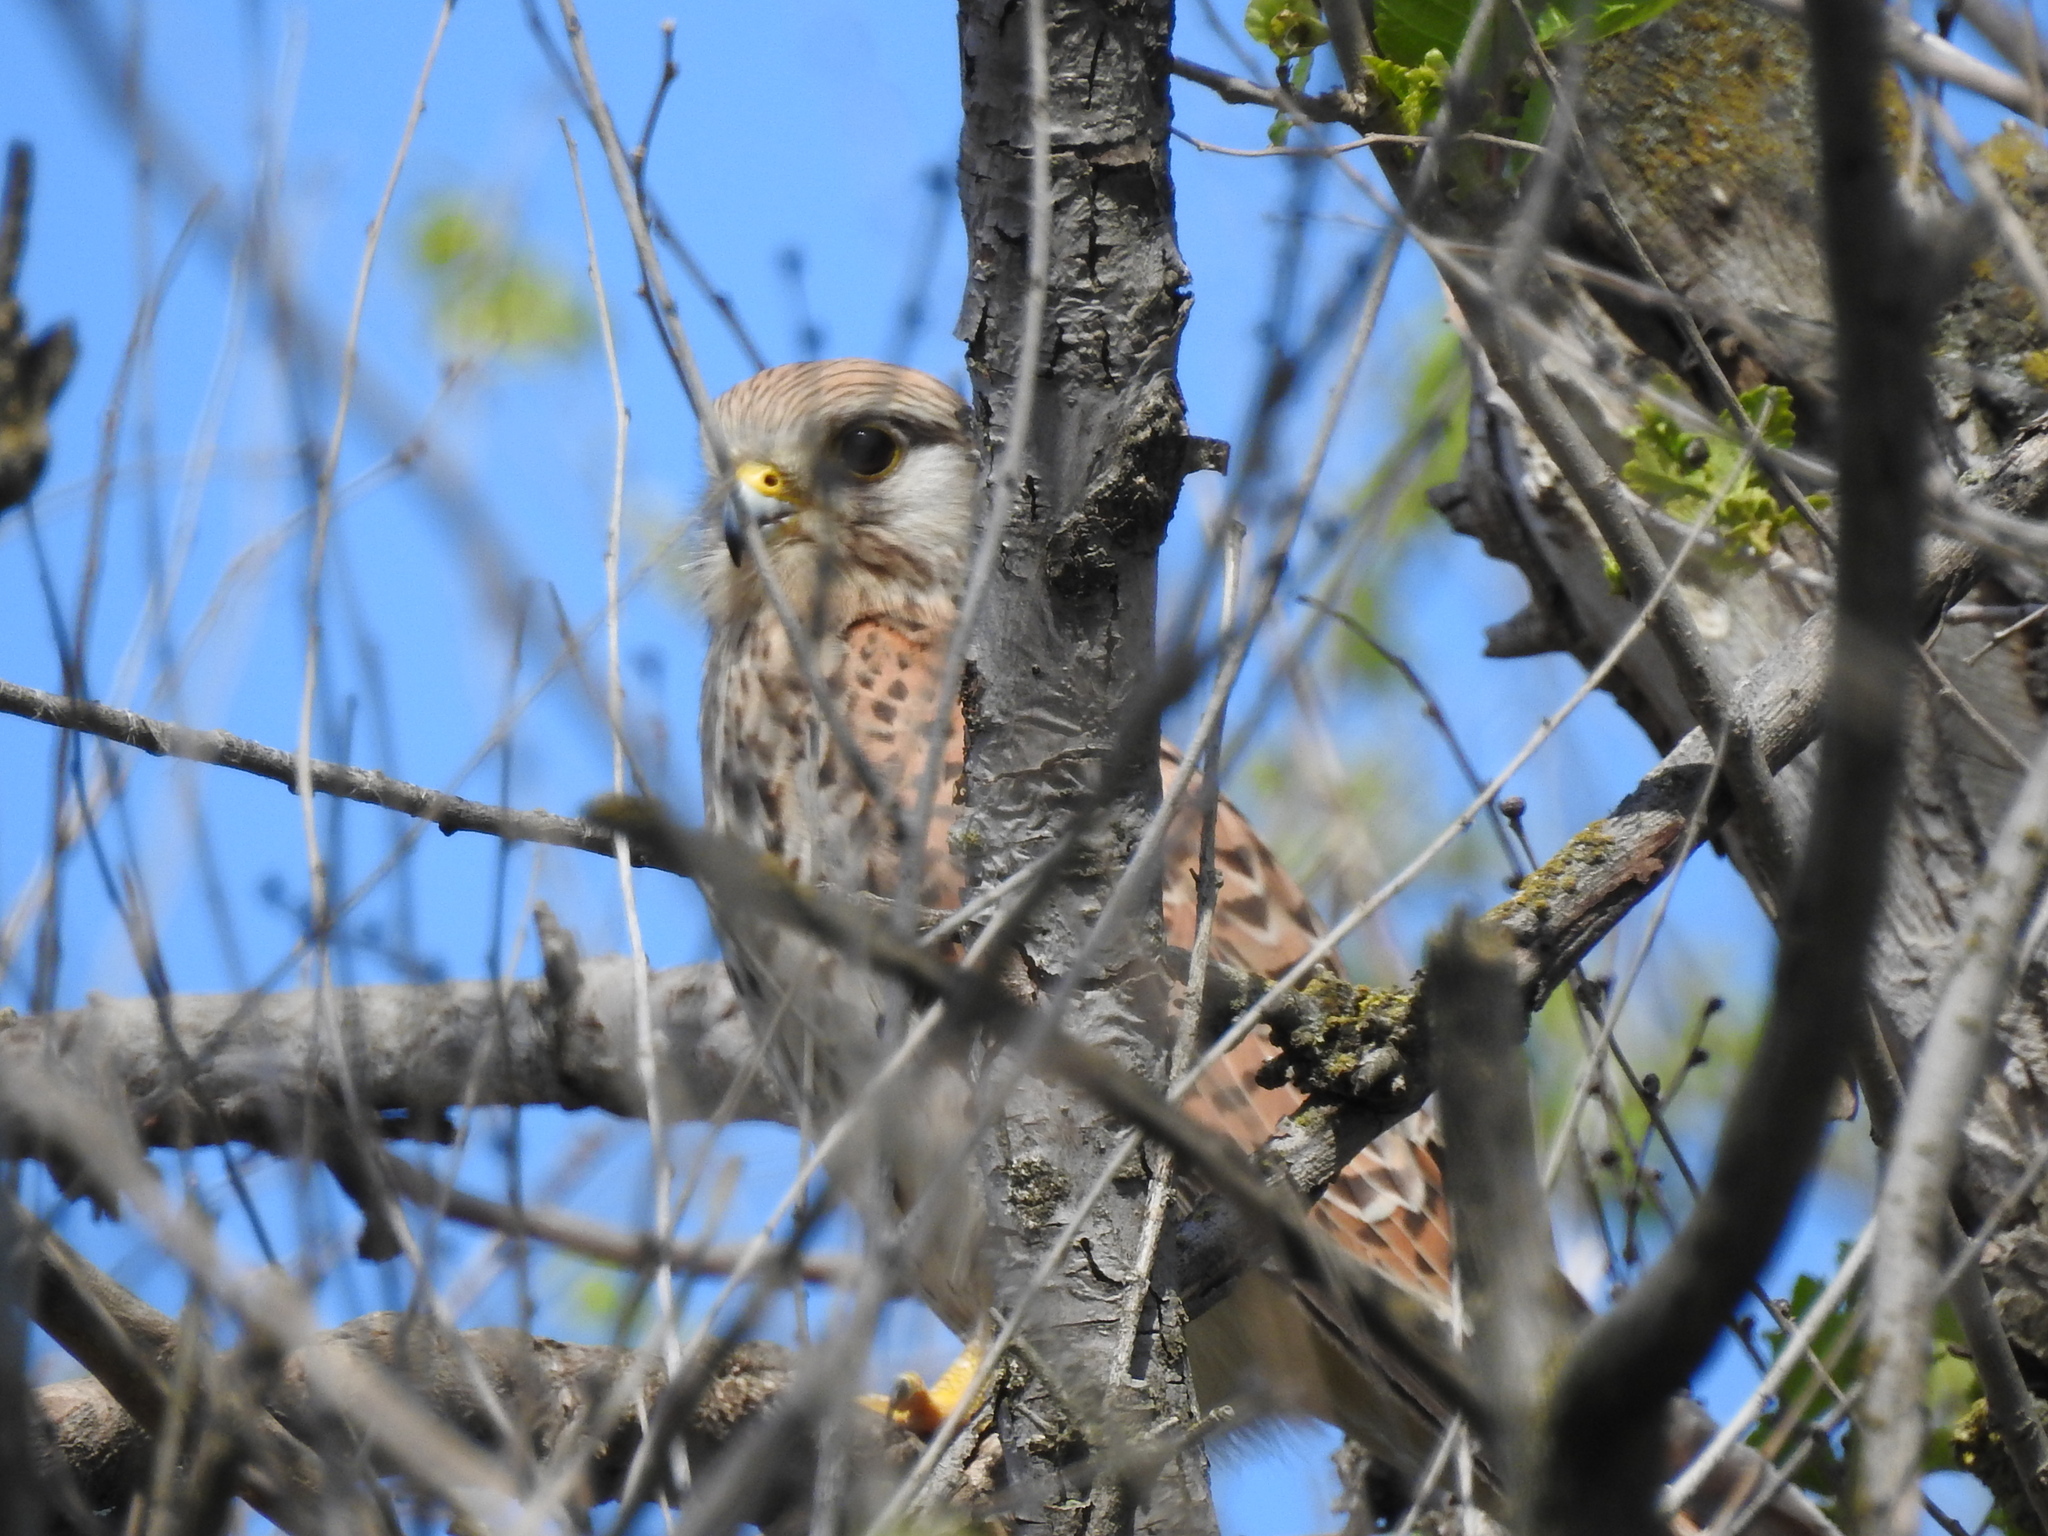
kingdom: Animalia
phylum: Chordata
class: Aves
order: Falconiformes
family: Falconidae
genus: Falco
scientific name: Falco tinnunculus
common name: Common kestrel
